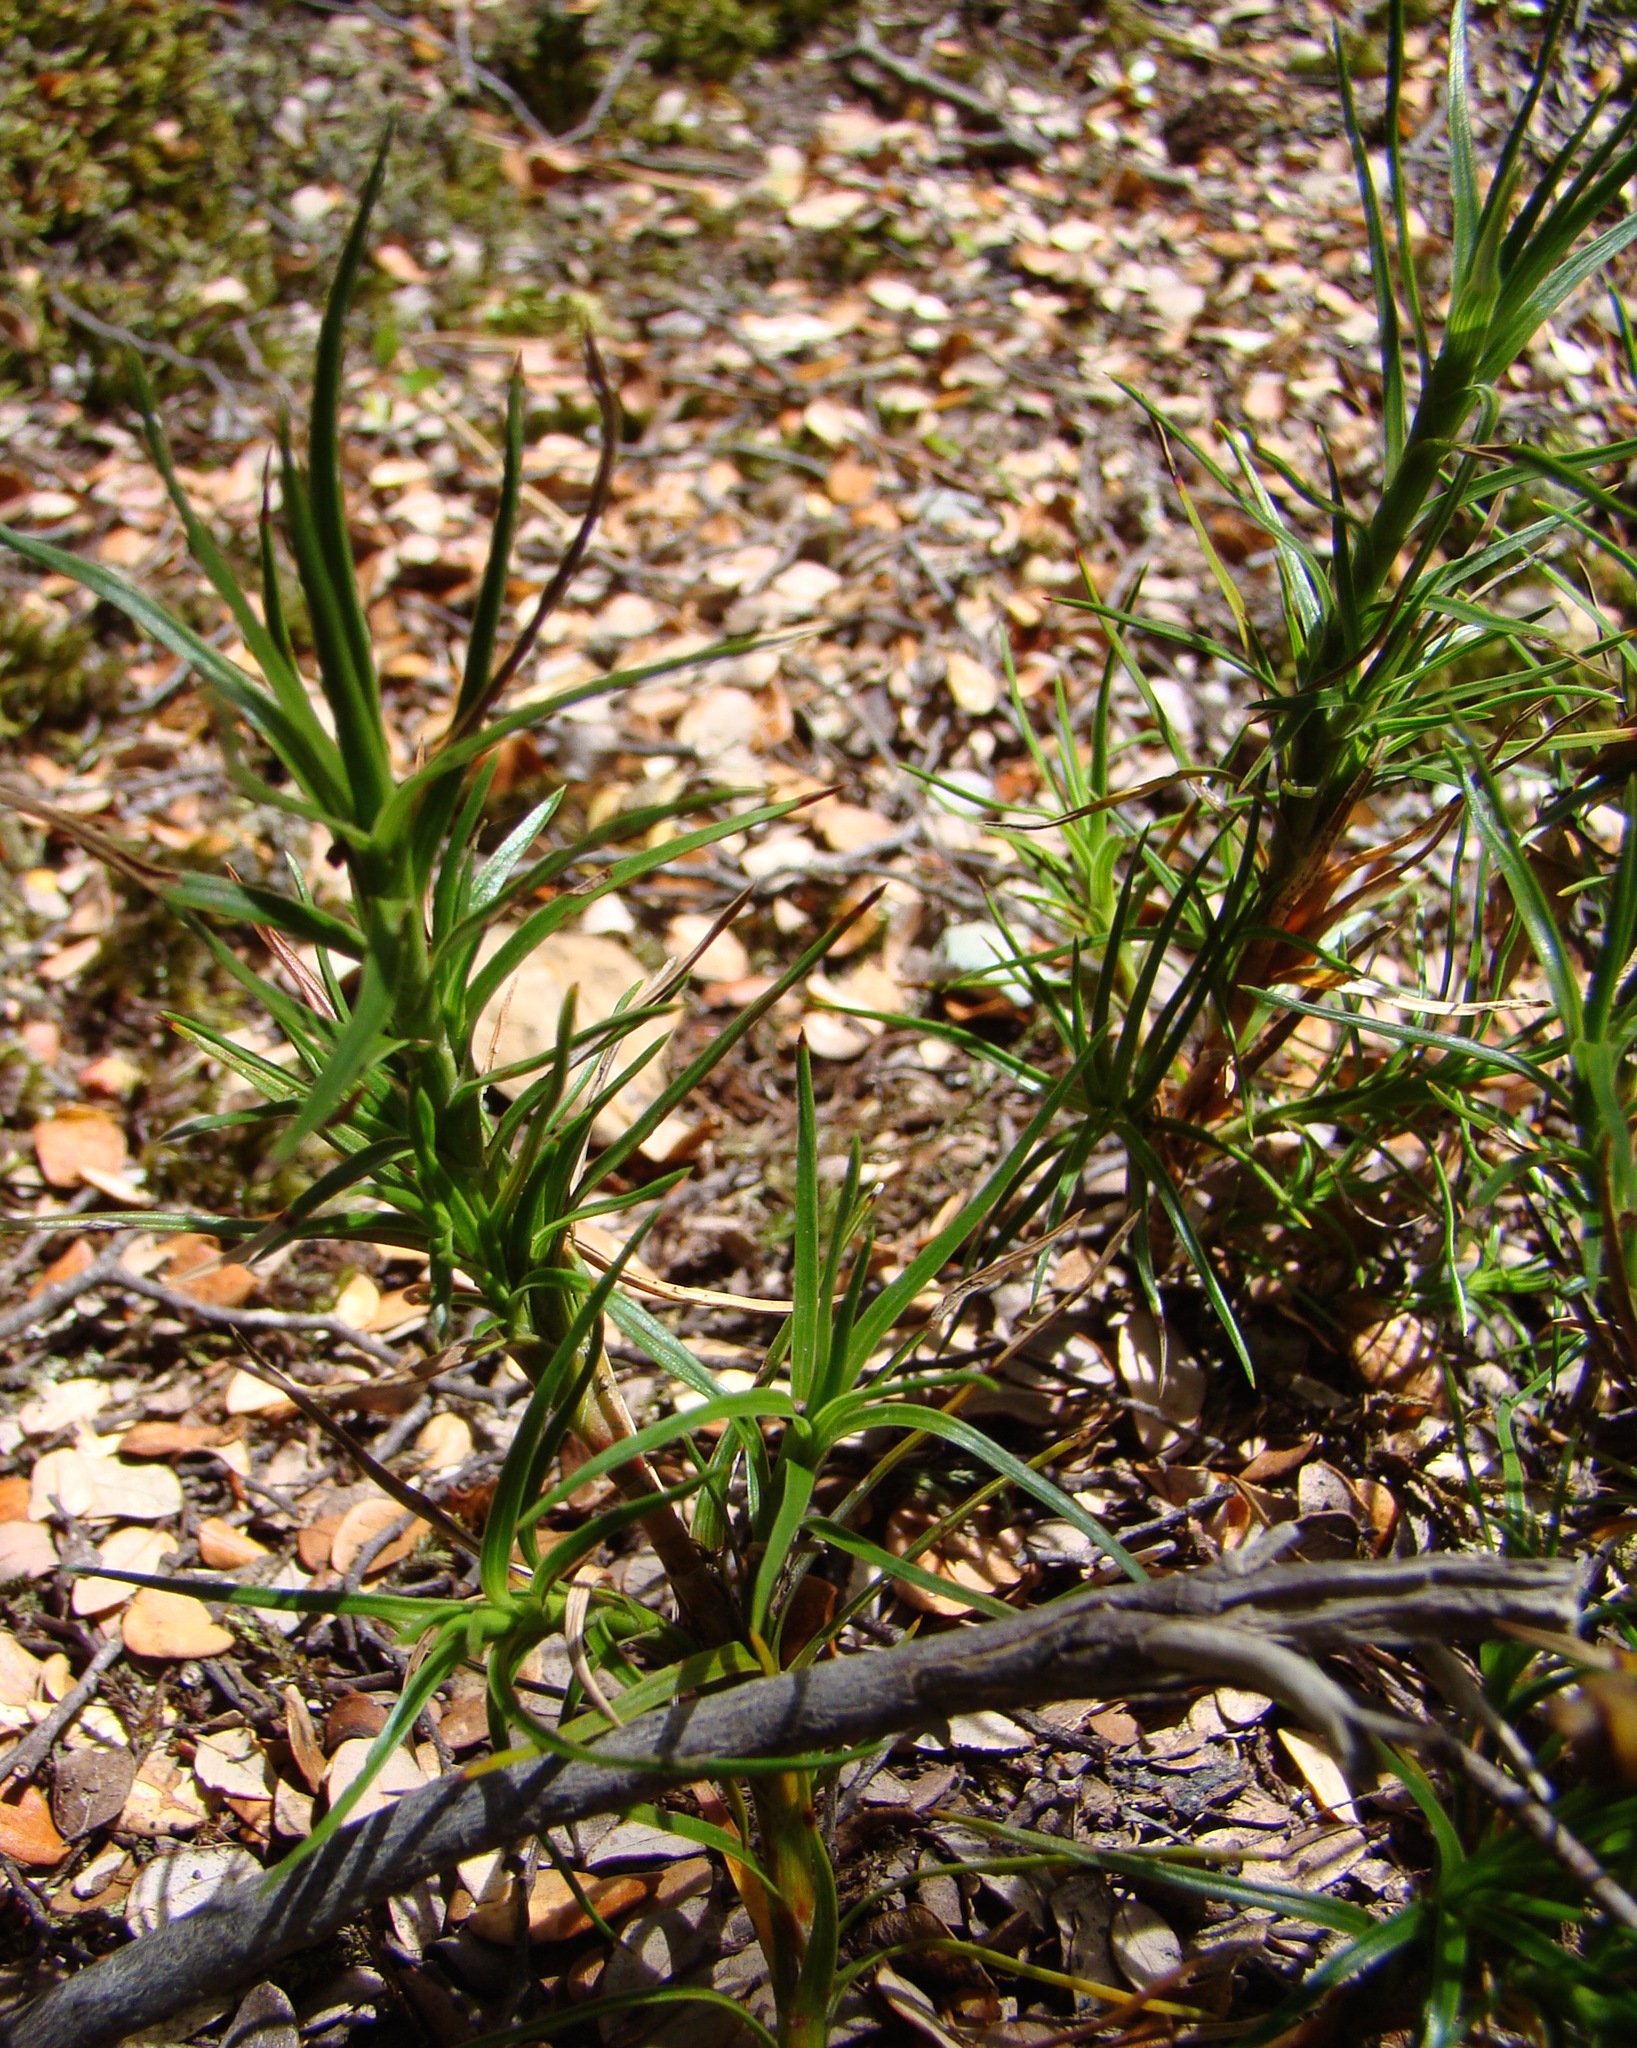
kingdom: Plantae
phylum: Tracheophyta
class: Magnoliopsida
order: Ericales
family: Ericaceae
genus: Dracophyllum
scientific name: Dracophyllum longifolium
